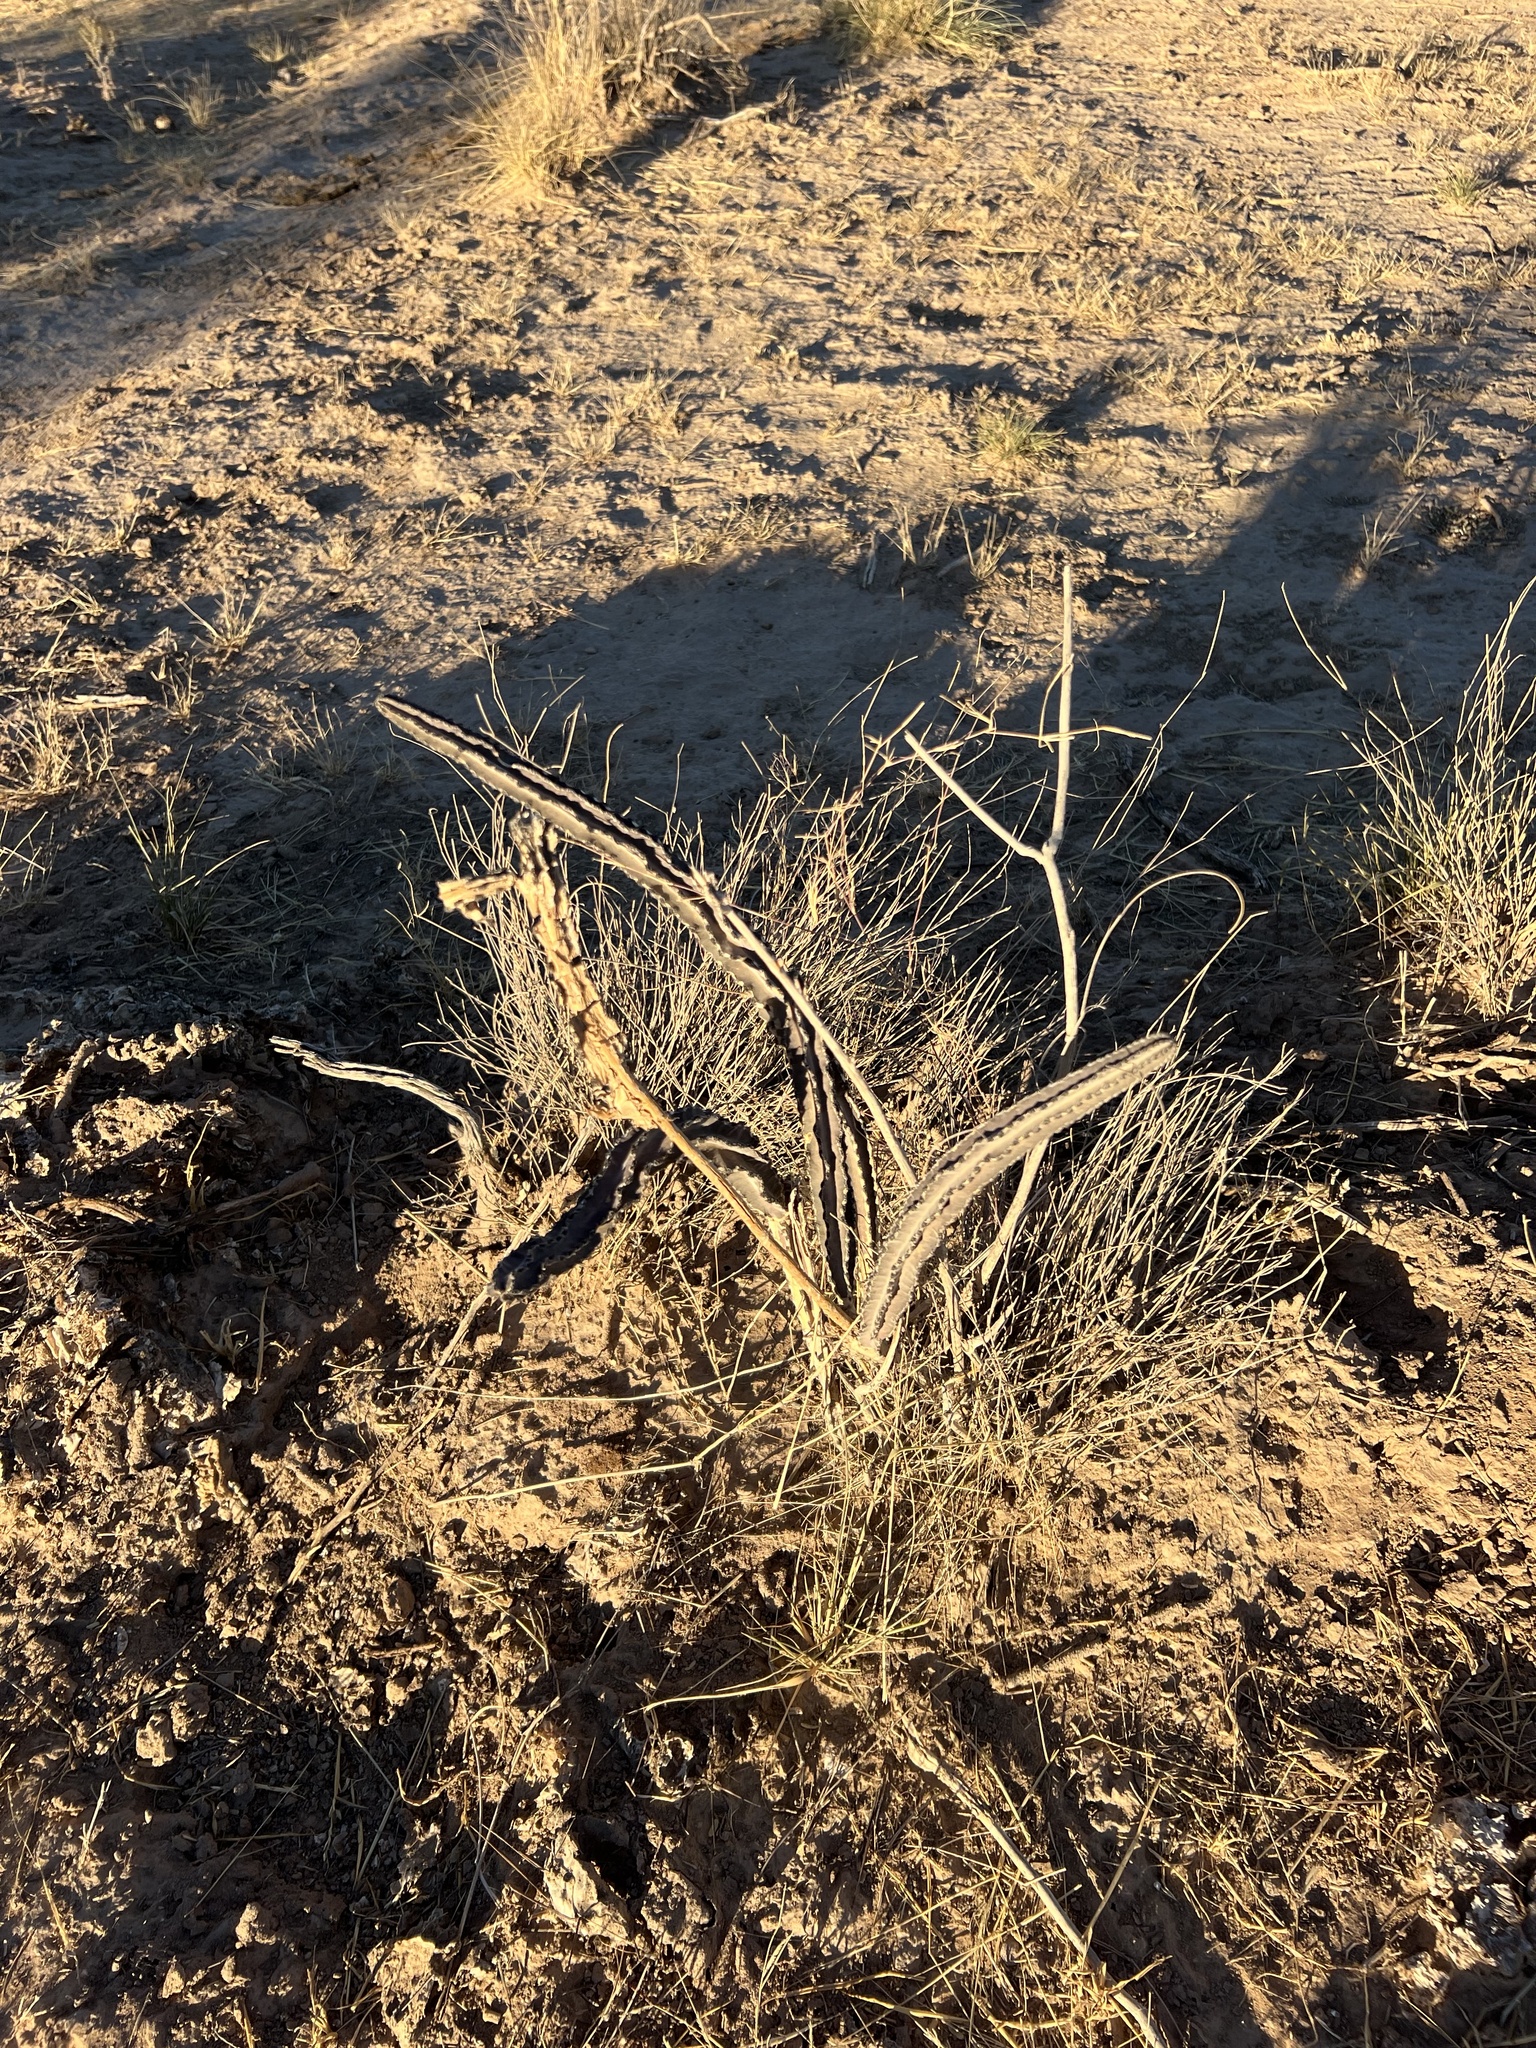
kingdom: Plantae
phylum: Tracheophyta
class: Magnoliopsida
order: Caryophyllales
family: Cactaceae
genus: Peniocereus
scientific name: Peniocereus greggii
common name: Desert night-blooming cereus
